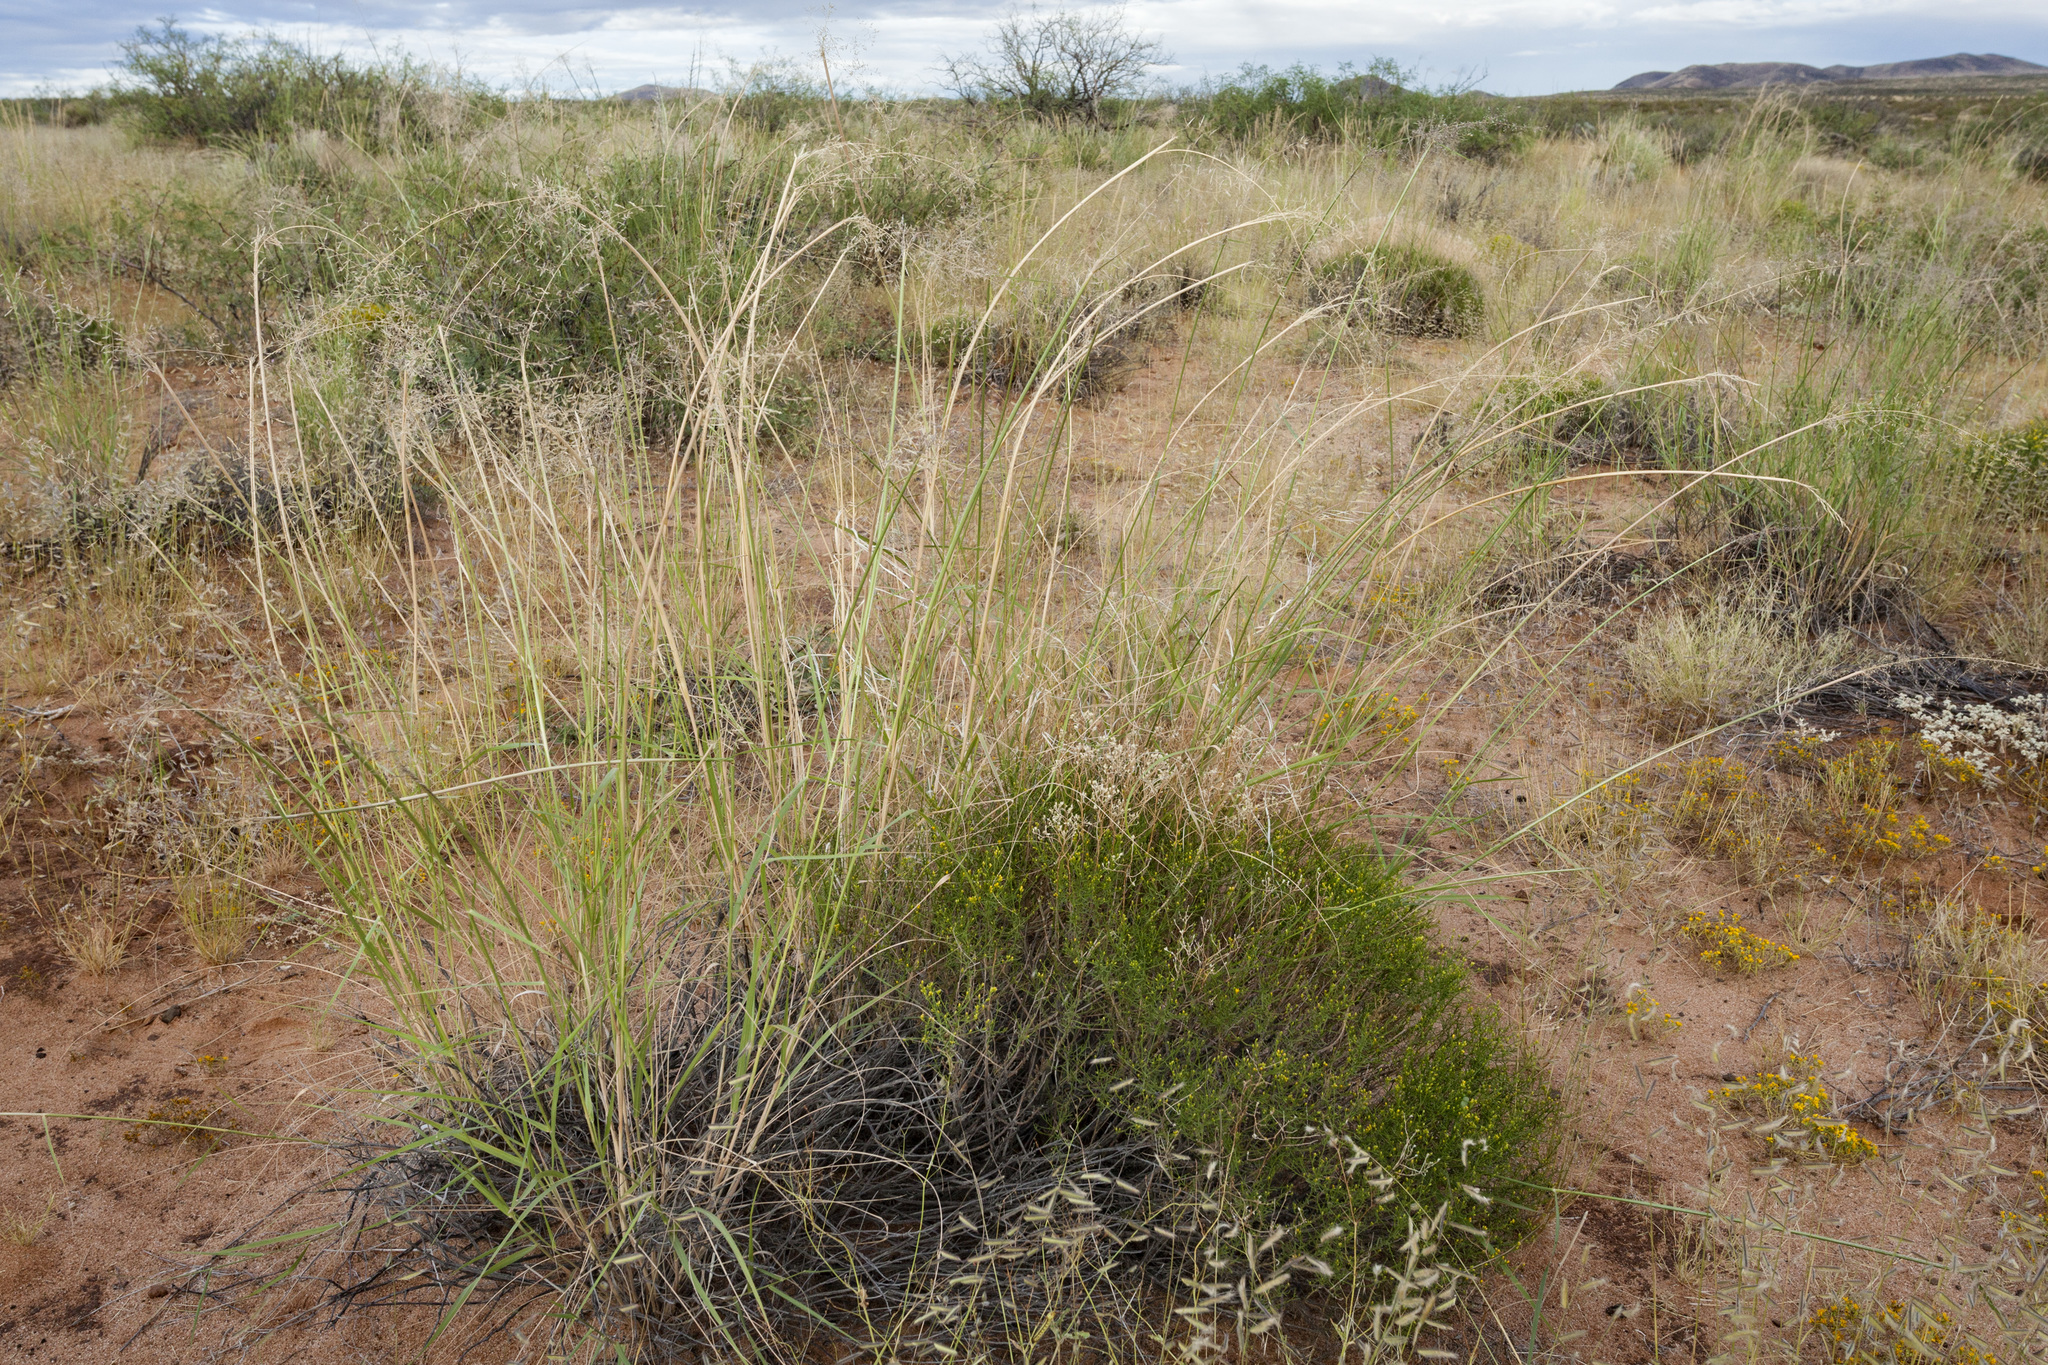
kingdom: Plantae
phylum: Tracheophyta
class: Liliopsida
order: Poales
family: Poaceae
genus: Sporobolus
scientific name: Sporobolus flexuosus
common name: Mesa dropseed
